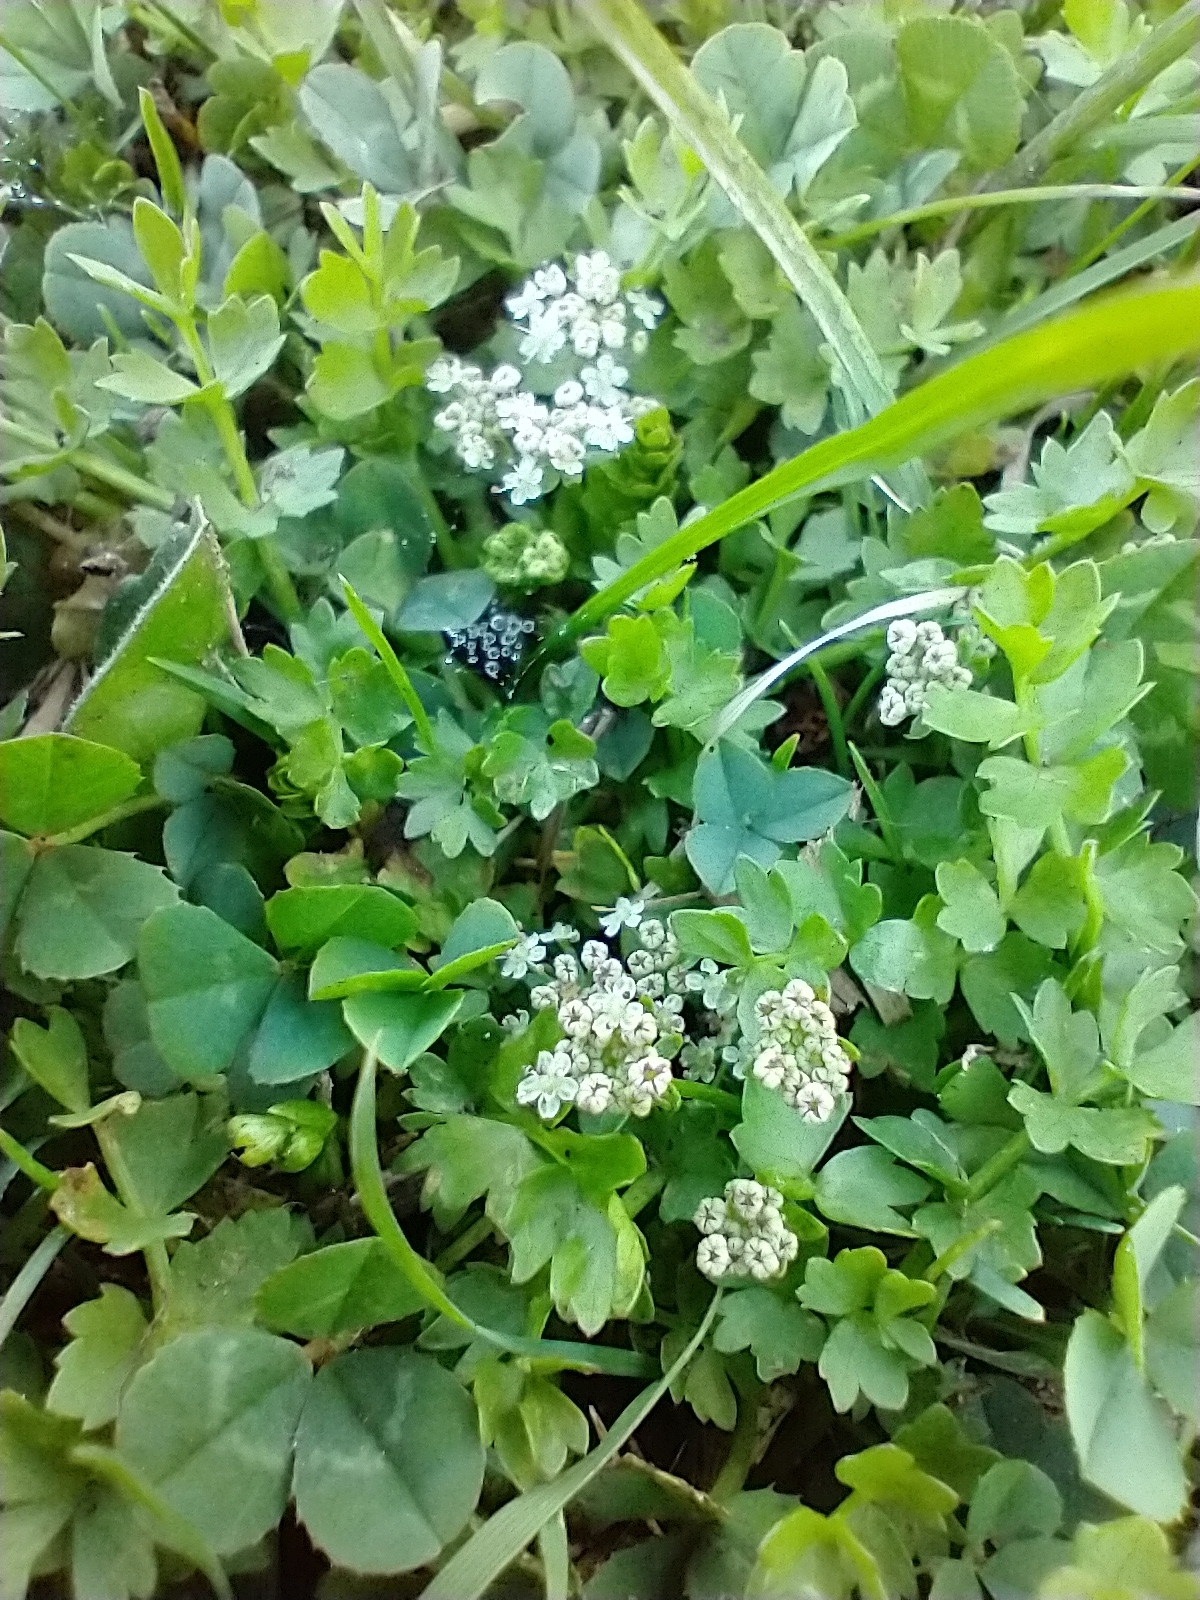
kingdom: Plantae
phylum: Tracheophyta
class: Magnoliopsida
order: Apiales
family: Apiaceae
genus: Helosciadium
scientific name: Helosciadium repens
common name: Creeping marshwort
